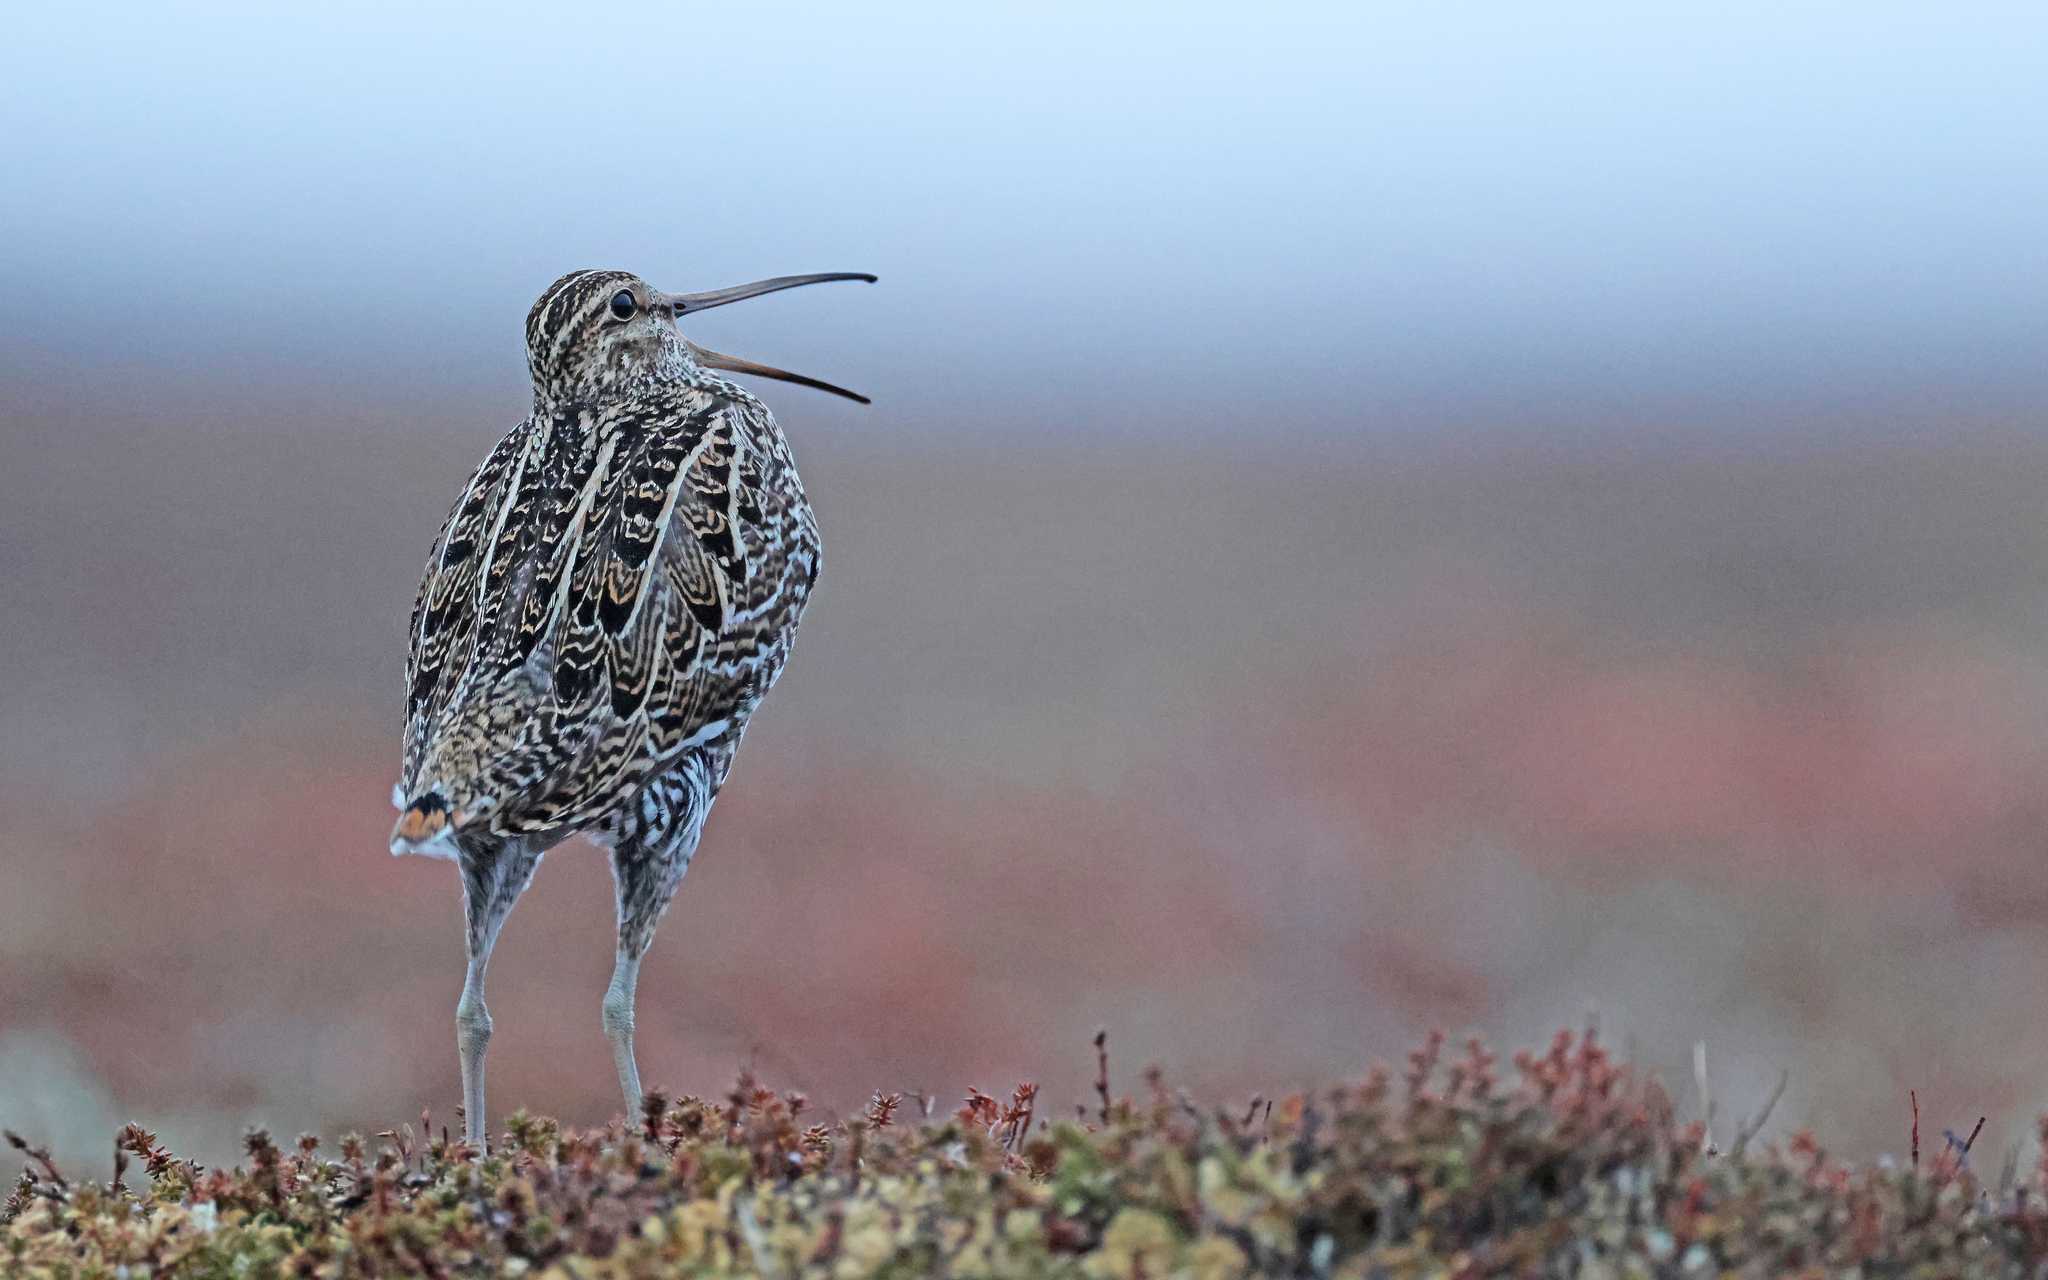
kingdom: Animalia
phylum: Chordata
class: Aves
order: Charadriiformes
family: Scolopacidae
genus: Gallinago
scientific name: Gallinago media
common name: Great snipe
